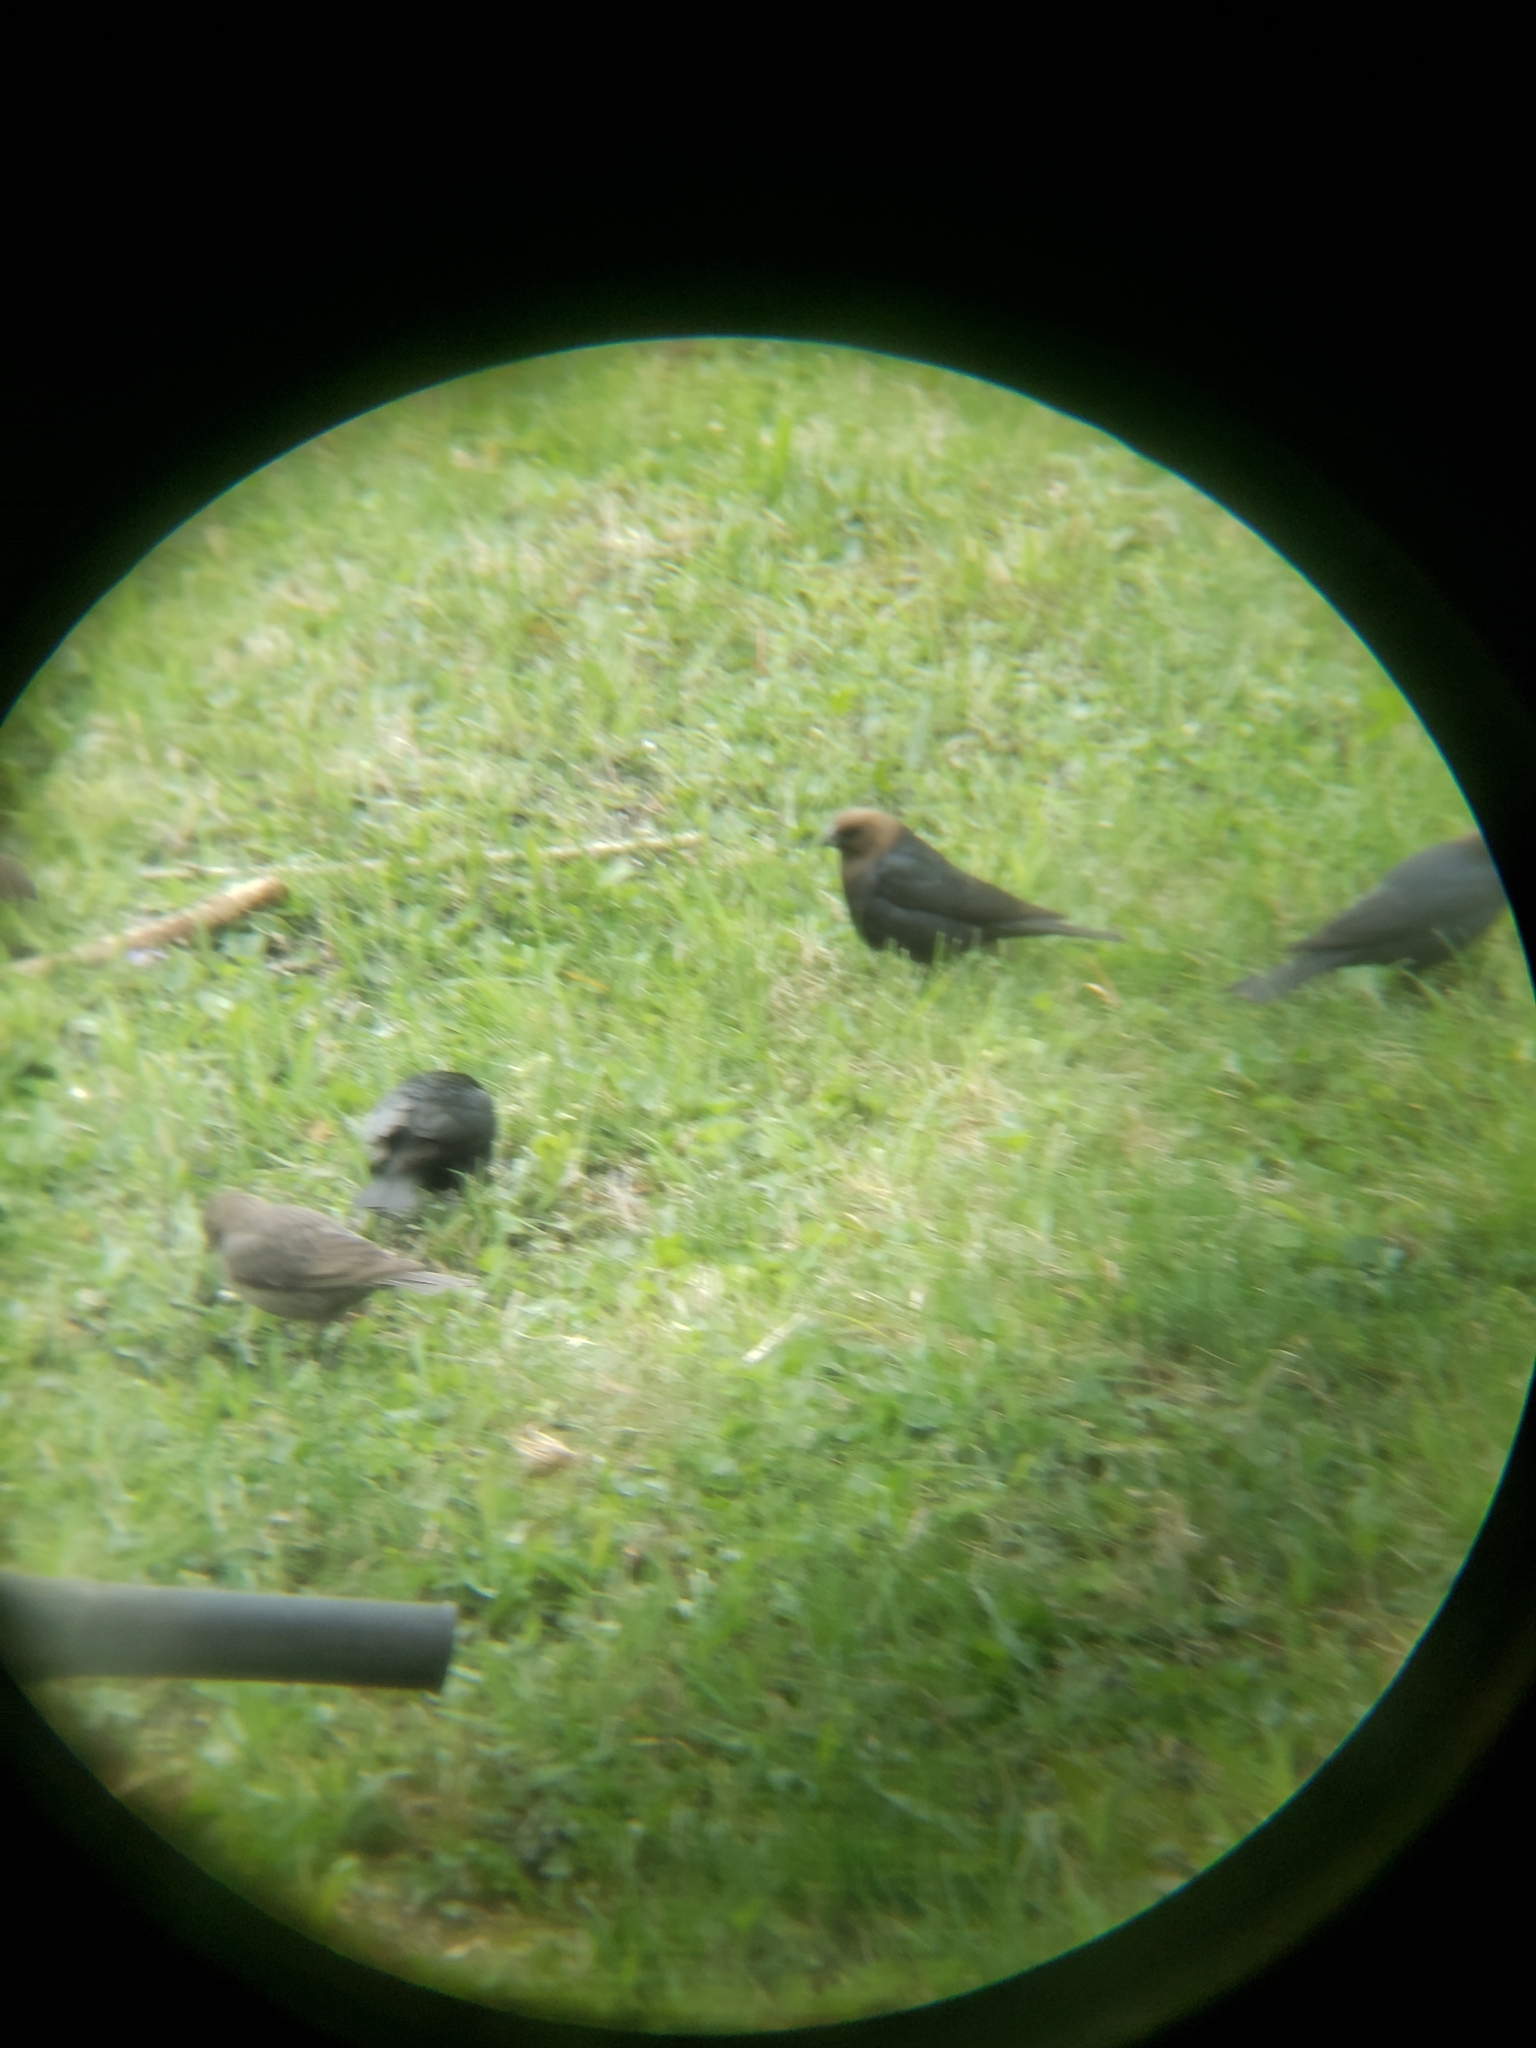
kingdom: Animalia
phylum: Chordata
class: Aves
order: Passeriformes
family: Icteridae
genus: Molothrus
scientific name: Molothrus ater
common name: Brown-headed cowbird
